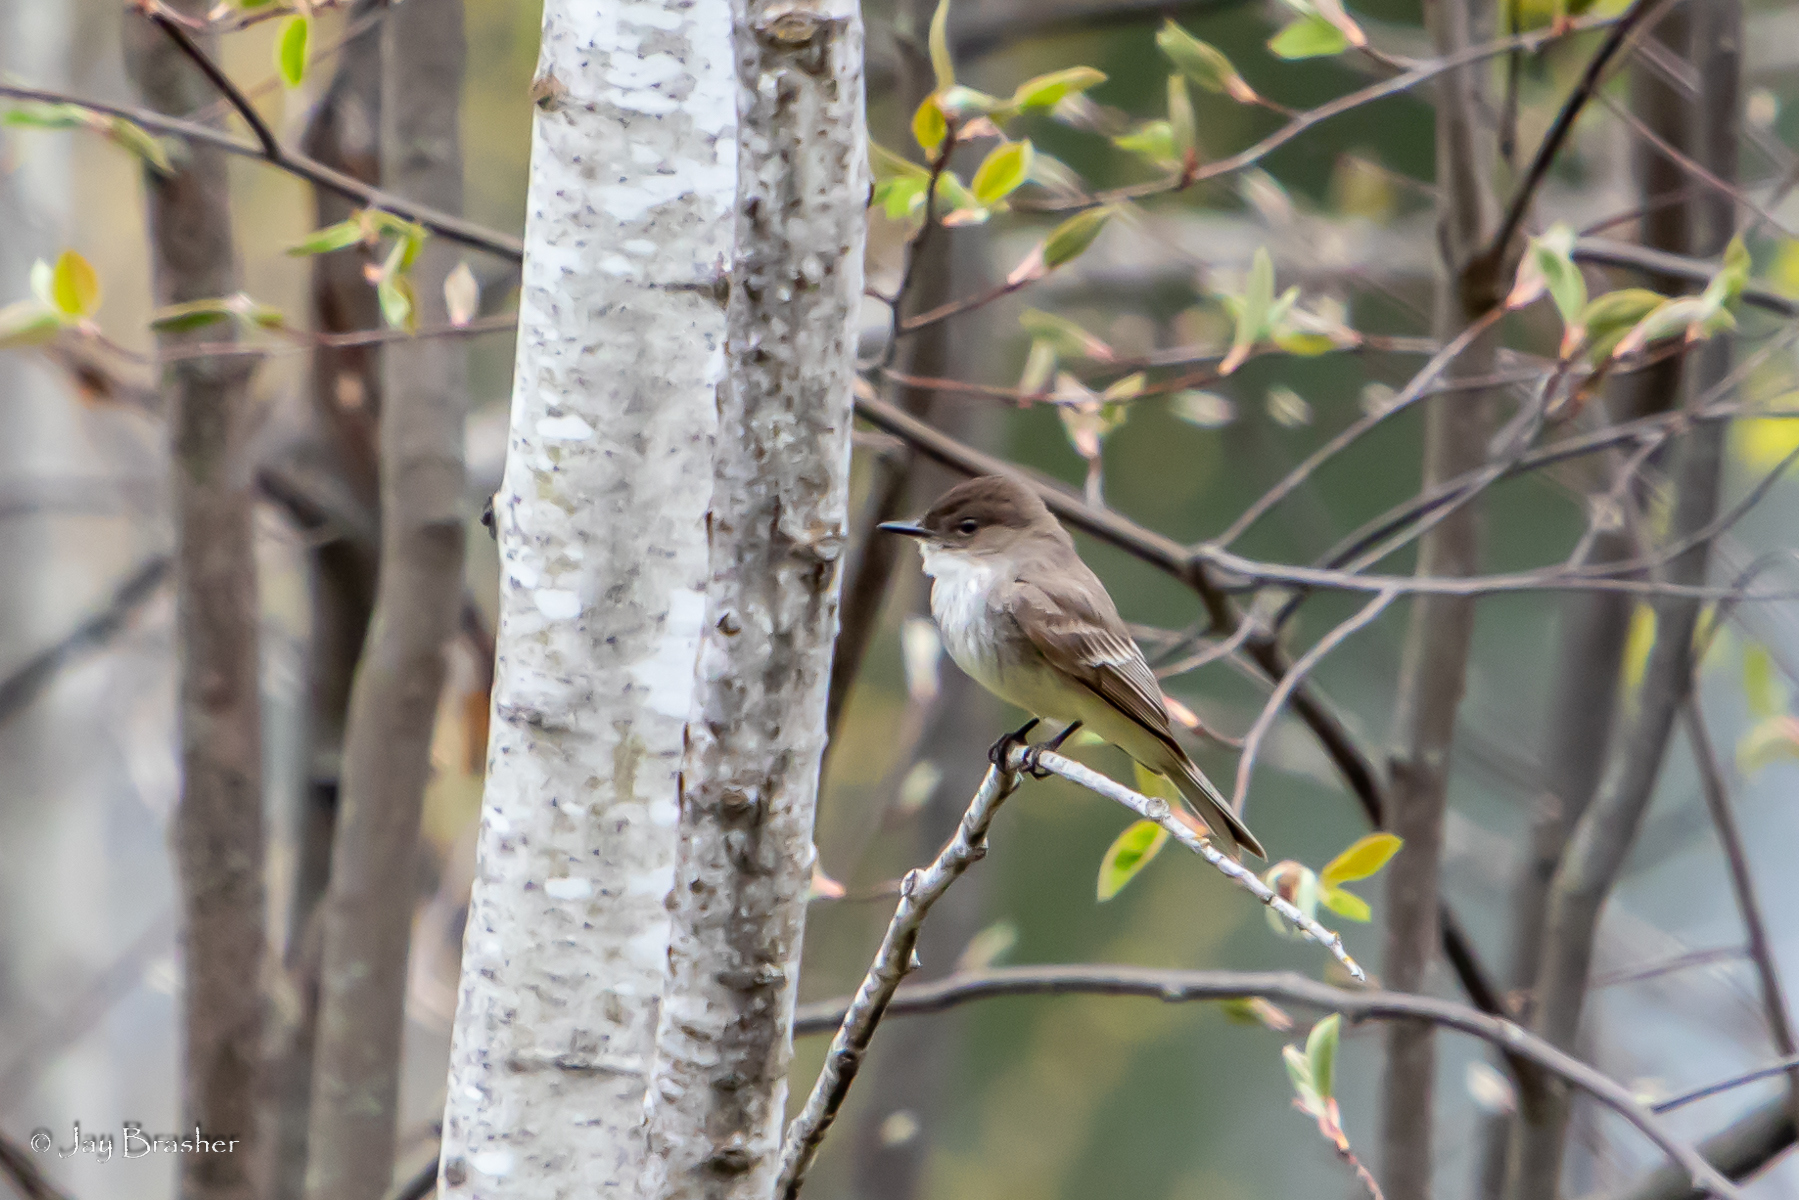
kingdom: Animalia
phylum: Chordata
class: Aves
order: Passeriformes
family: Tyrannidae
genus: Sayornis
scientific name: Sayornis phoebe
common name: Eastern phoebe
